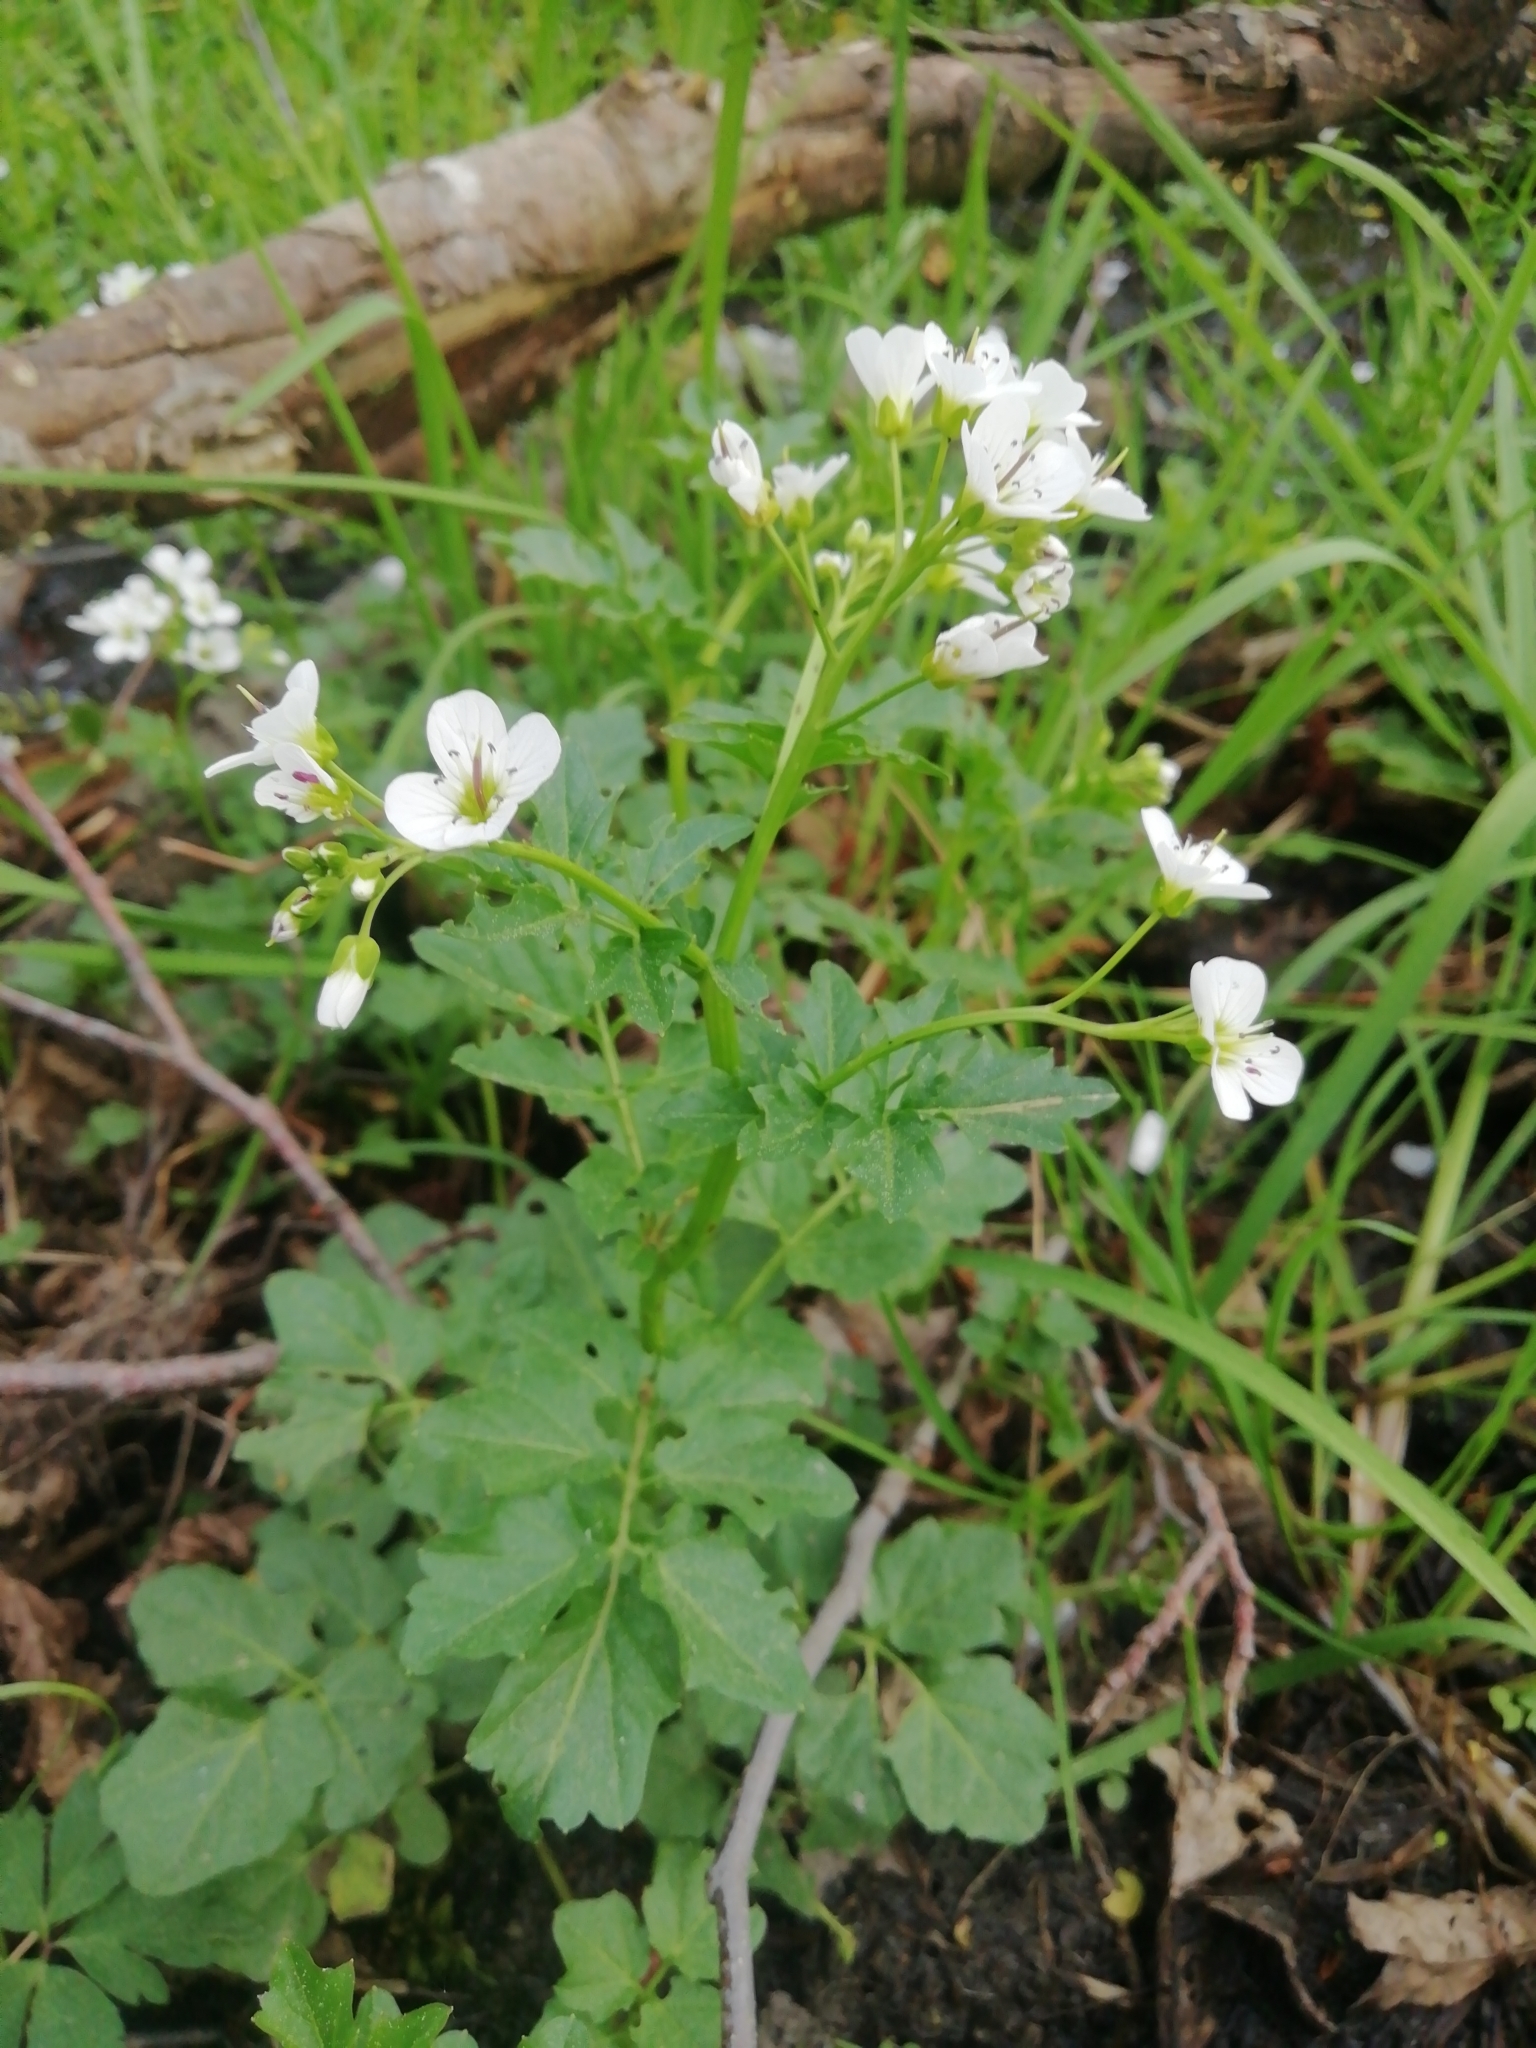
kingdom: Plantae
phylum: Tracheophyta
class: Magnoliopsida
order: Brassicales
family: Brassicaceae
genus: Cardamine
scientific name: Cardamine amara
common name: Large bitter-cress
